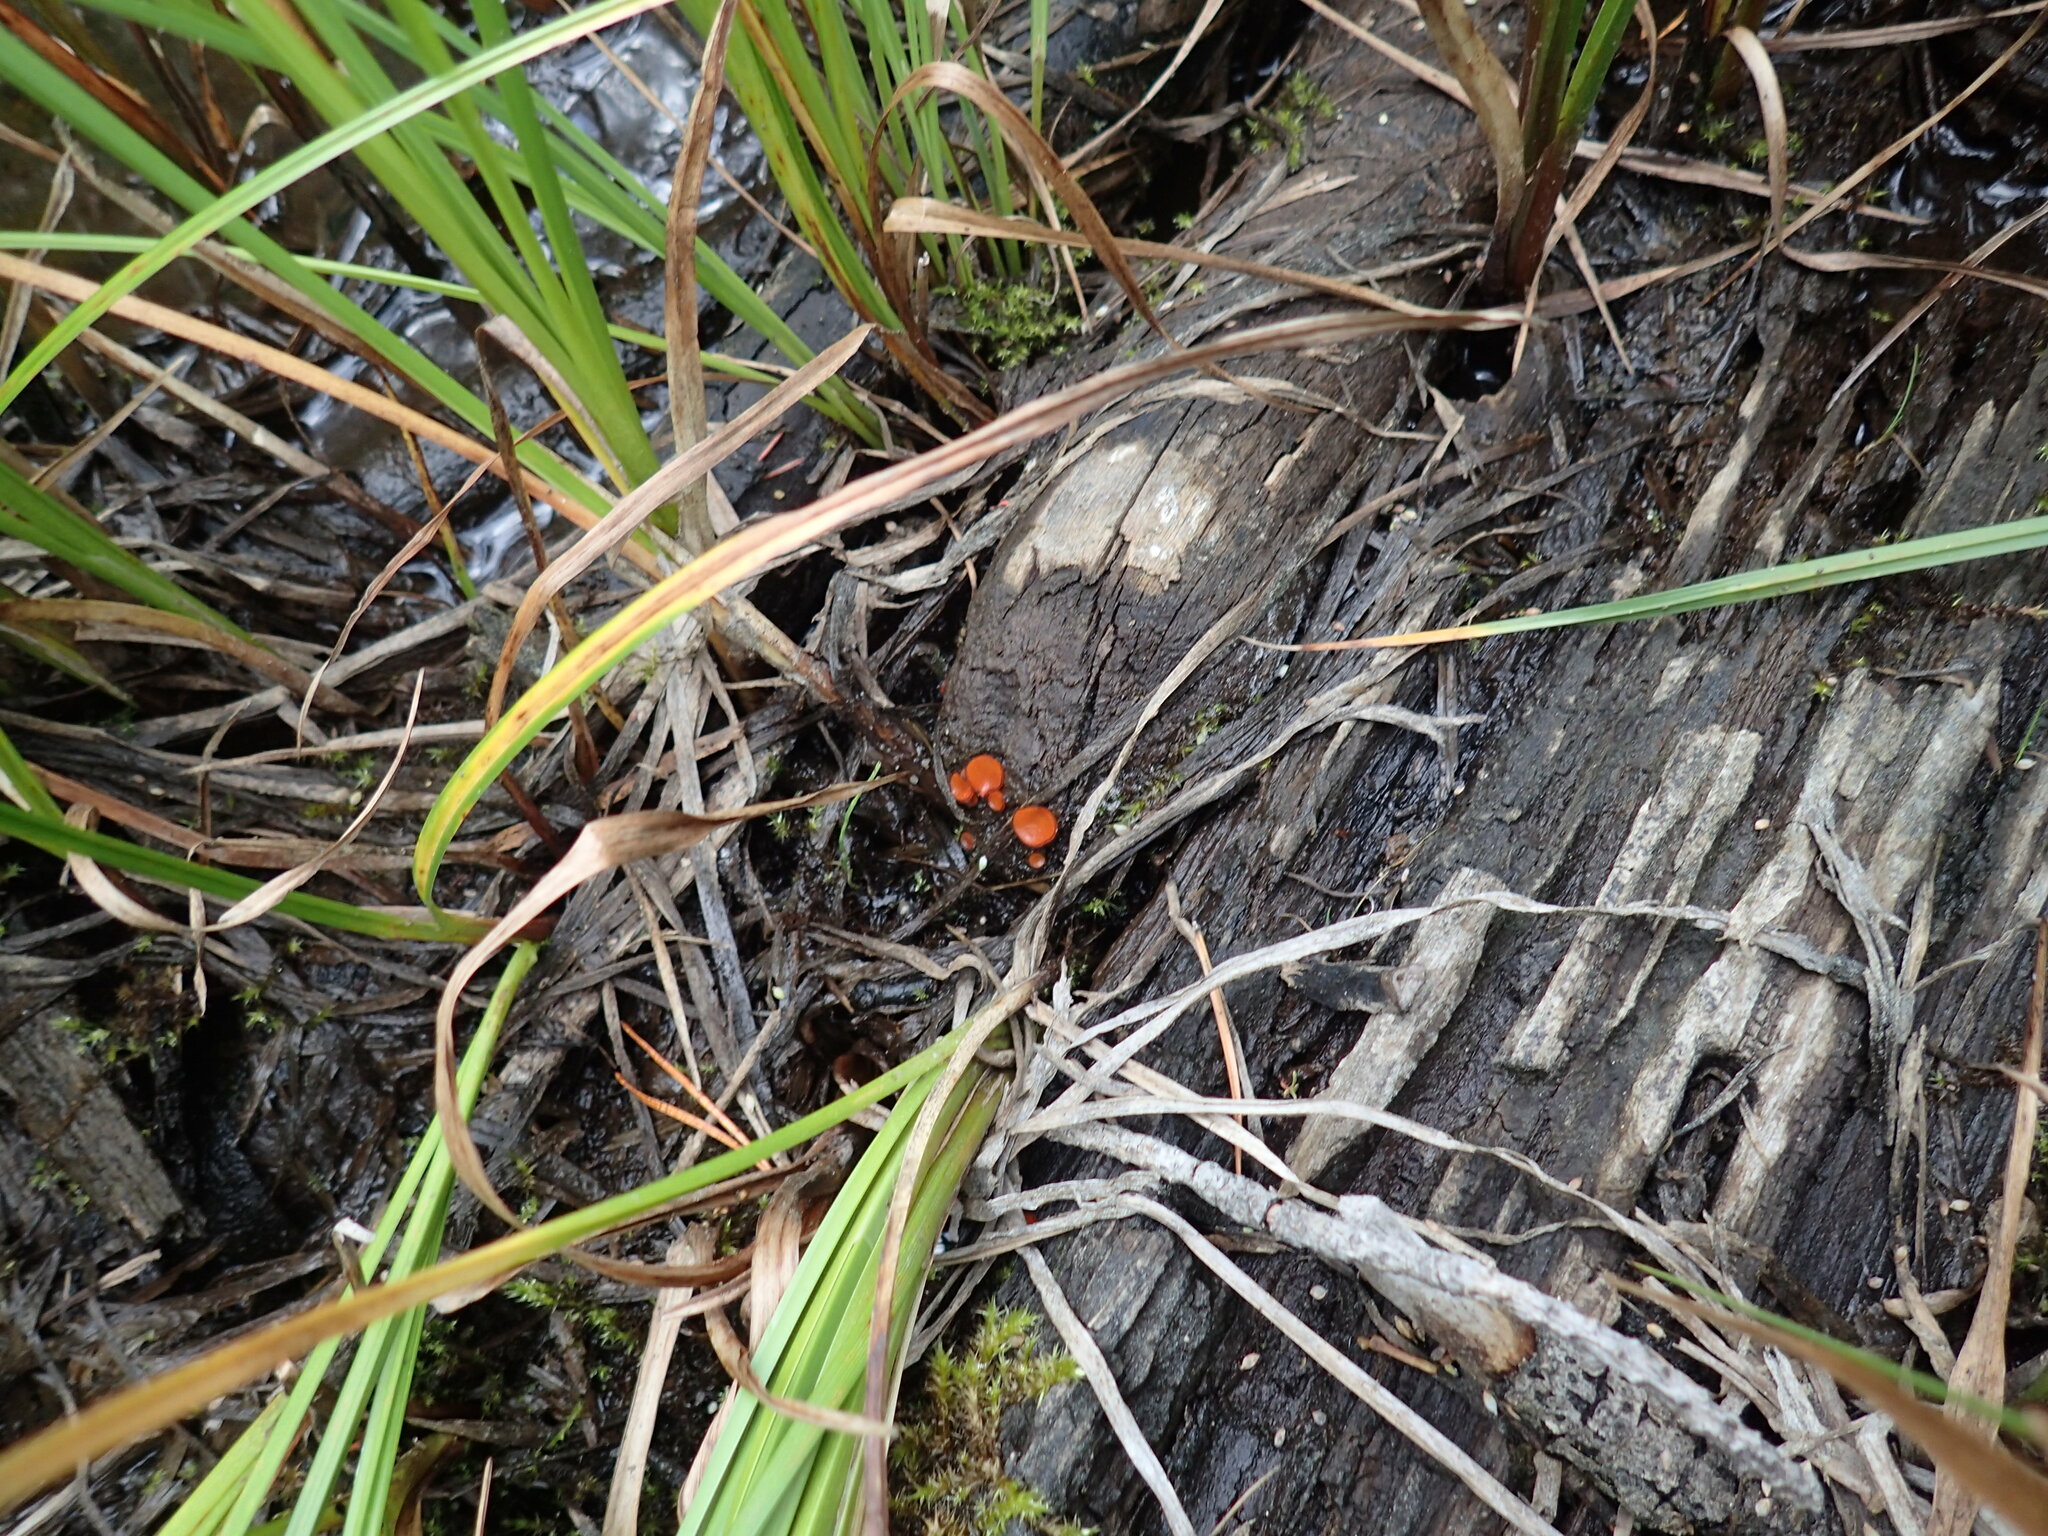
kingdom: Fungi
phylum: Ascomycota
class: Pezizomycetes
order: Pezizales
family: Pyronemataceae
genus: Scutellinia
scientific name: Scutellinia
